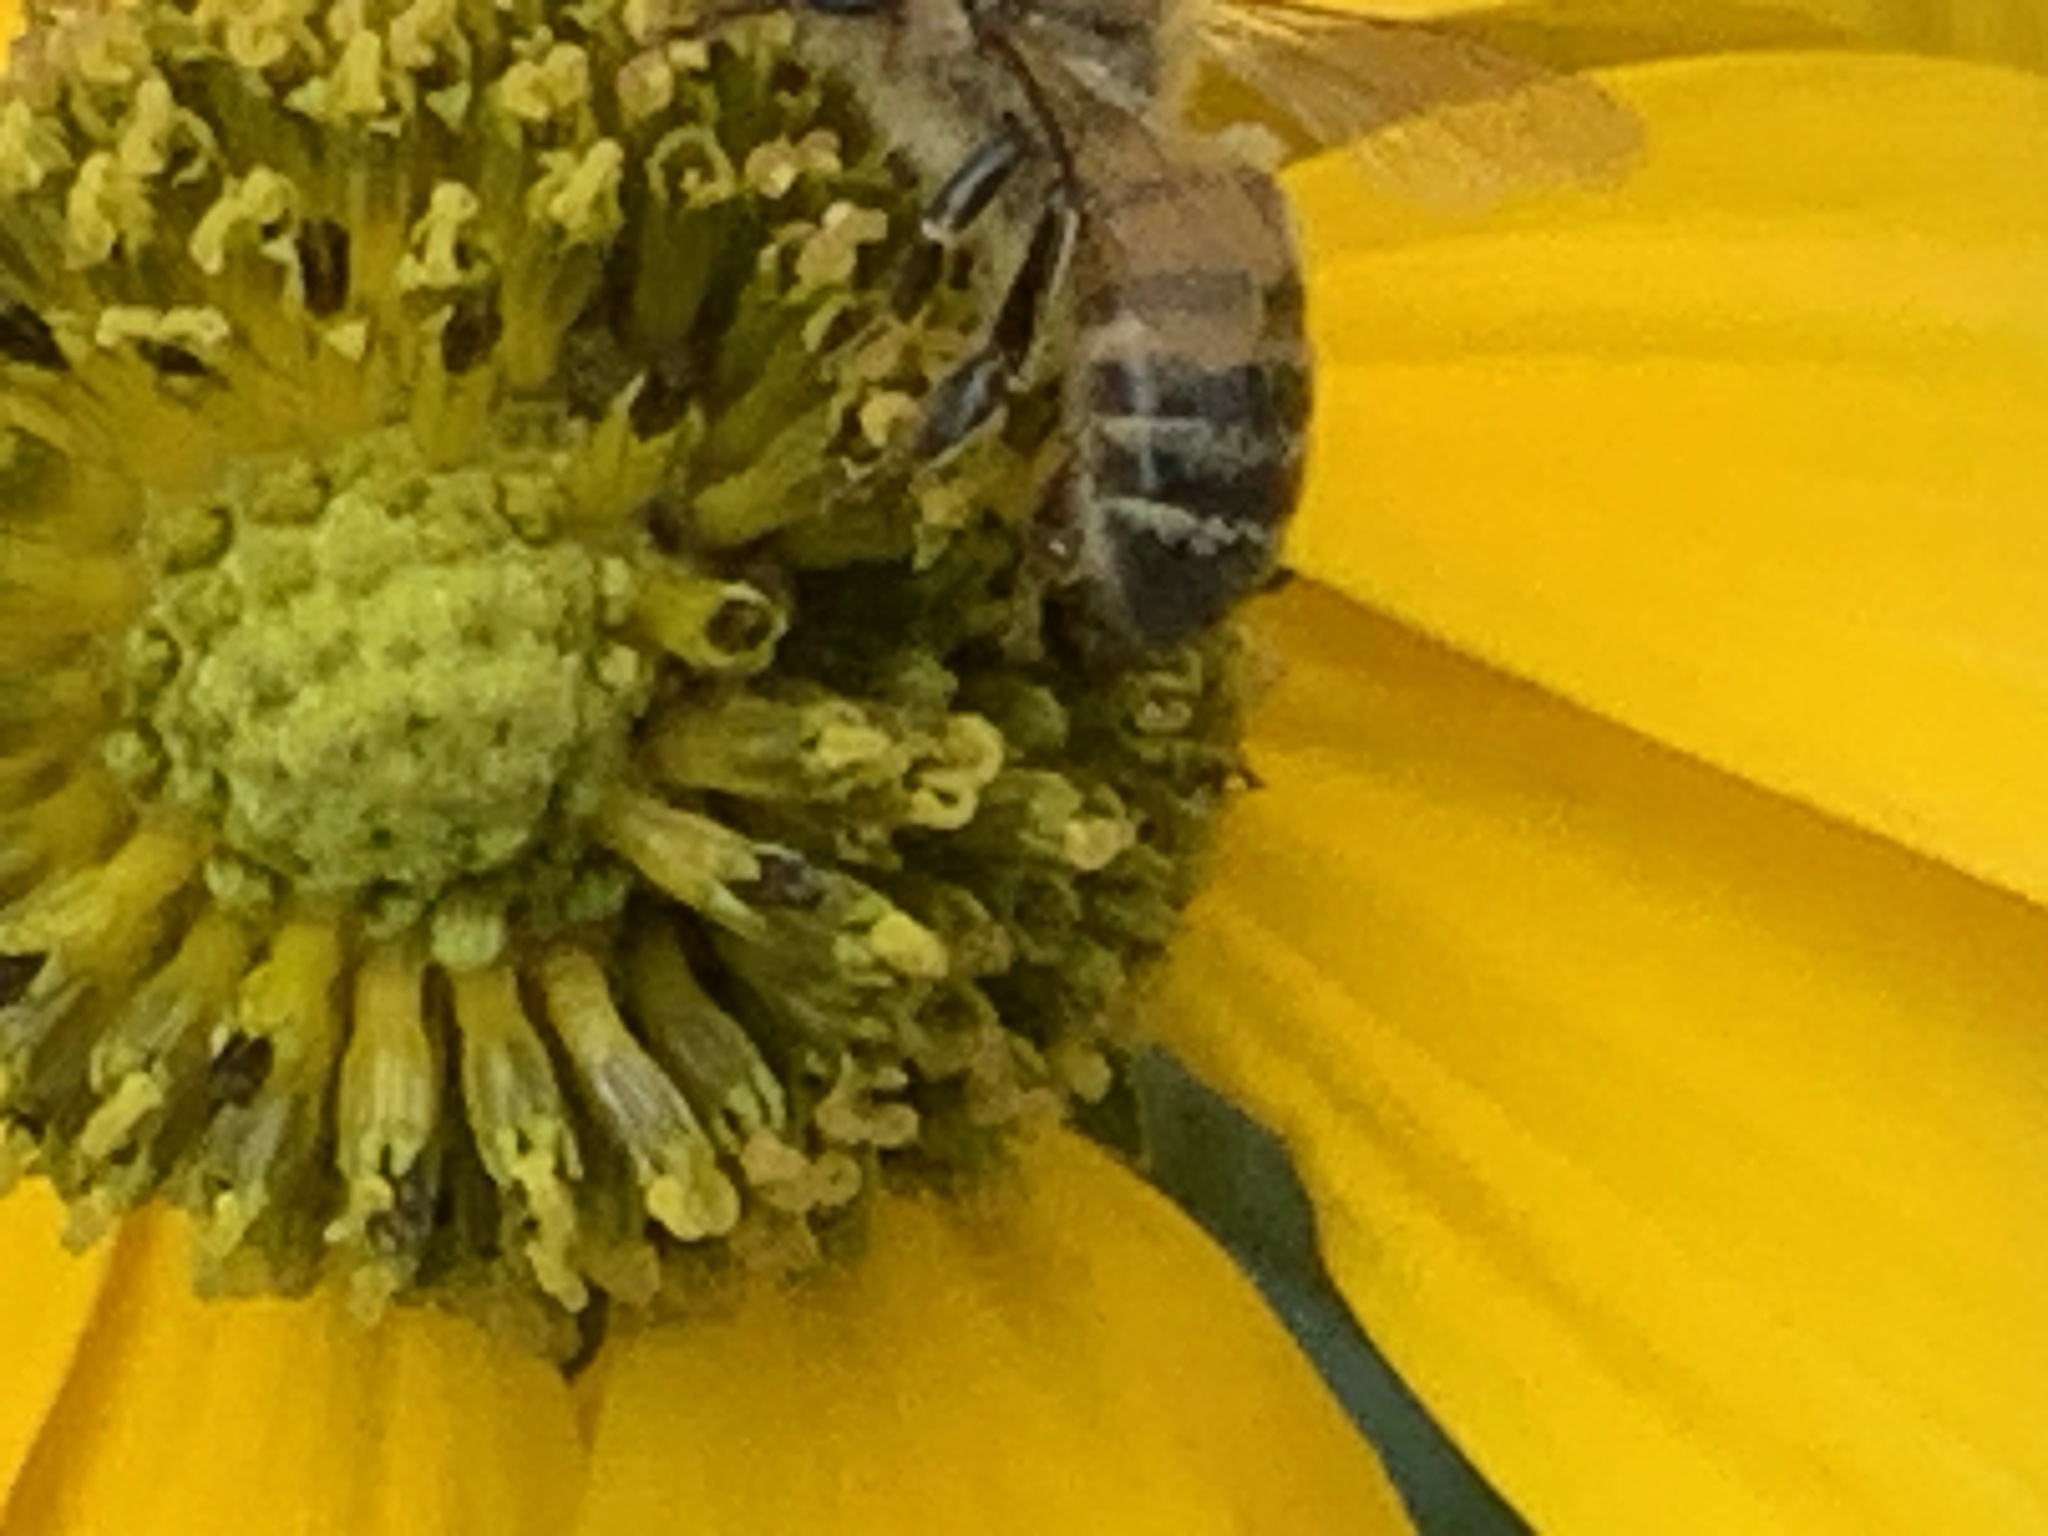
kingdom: Animalia
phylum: Arthropoda
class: Insecta
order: Hymenoptera
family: Apidae
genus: Apis
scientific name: Apis mellifera
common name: Honey bee
